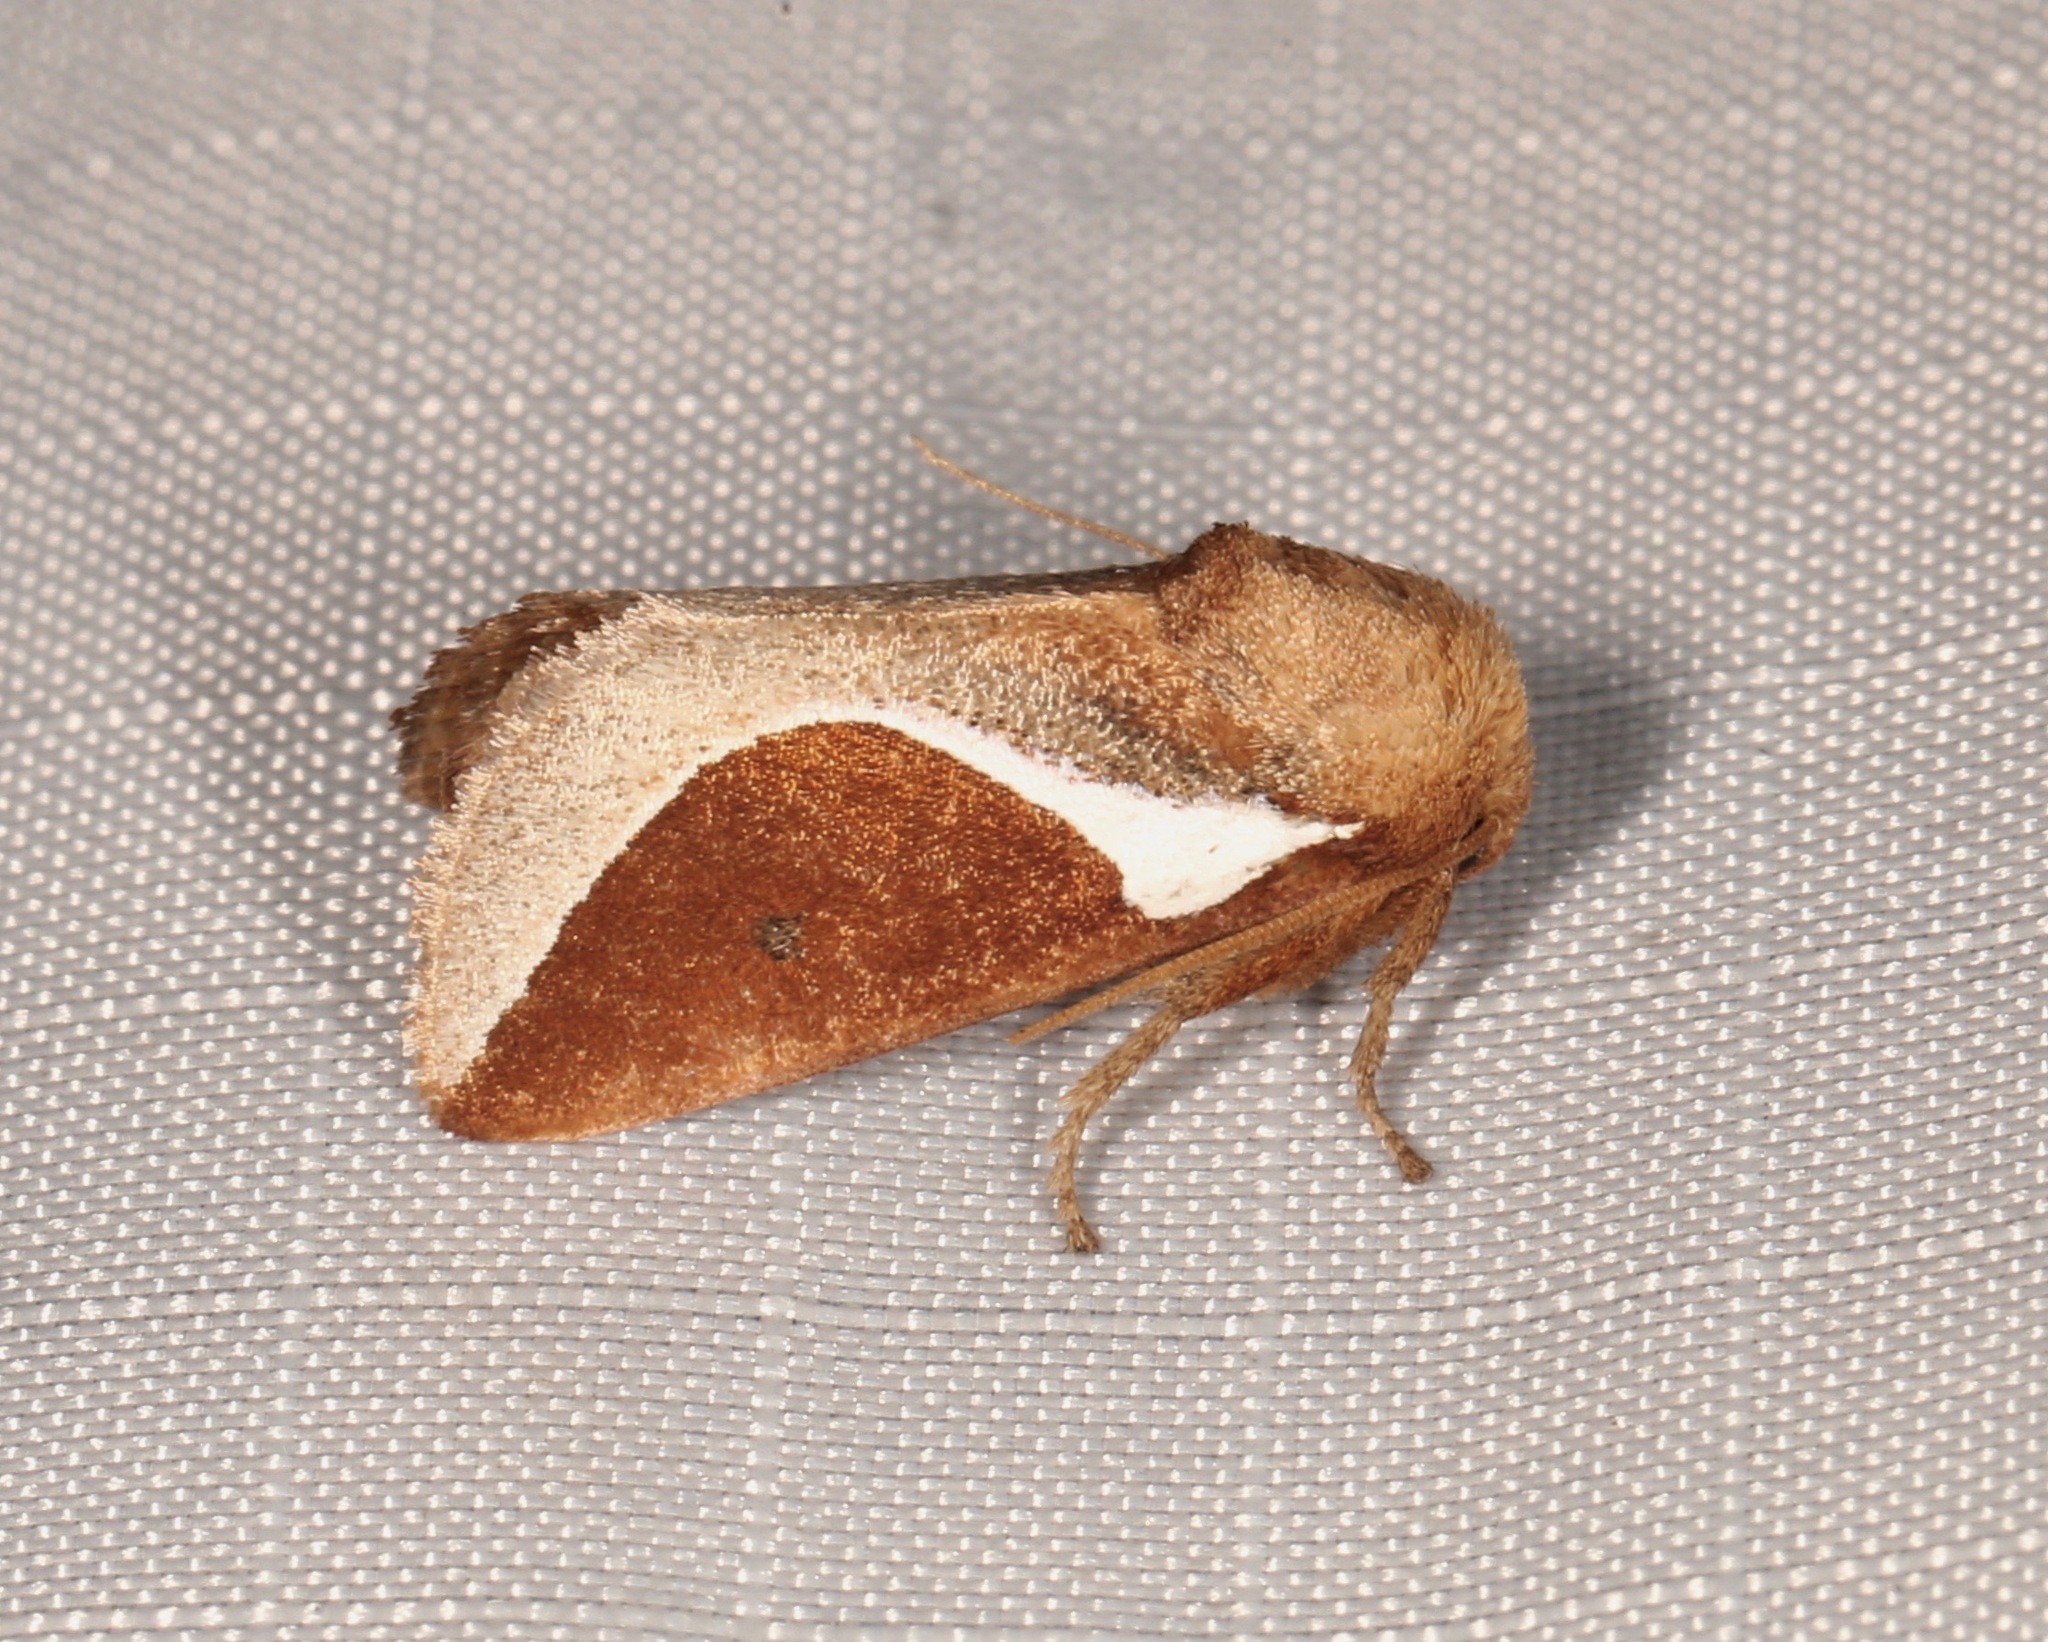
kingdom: Animalia
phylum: Arthropoda
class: Insecta
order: Lepidoptera
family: Limacodidae
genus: Prolimacodes
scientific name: Prolimacodes badia
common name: Skiff moth
